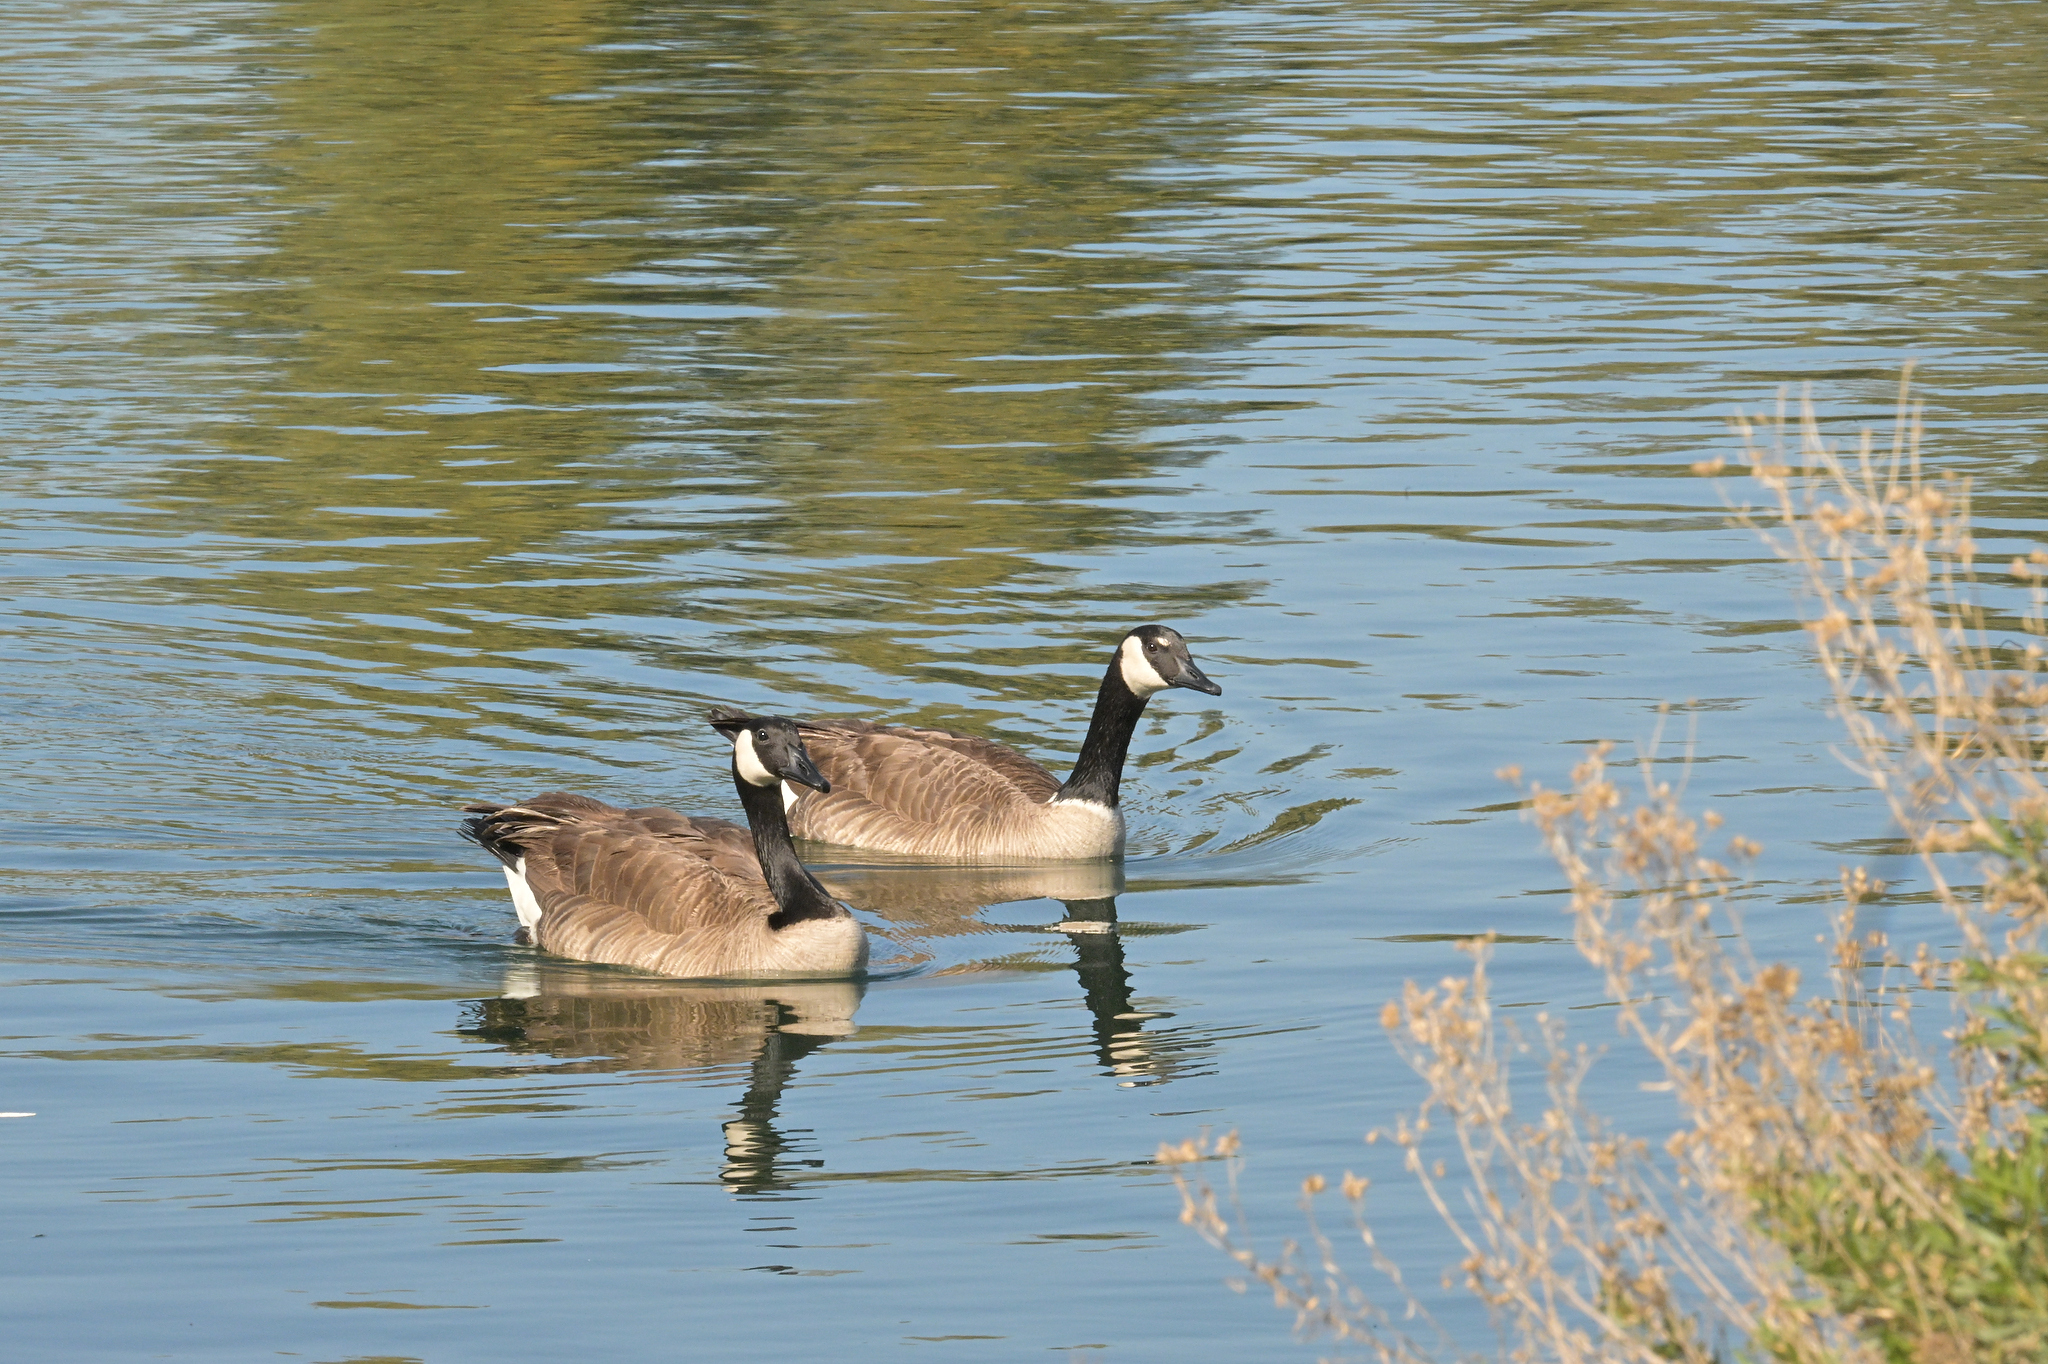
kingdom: Animalia
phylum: Chordata
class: Aves
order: Anseriformes
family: Anatidae
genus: Branta
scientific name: Branta canadensis
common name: Canada goose
